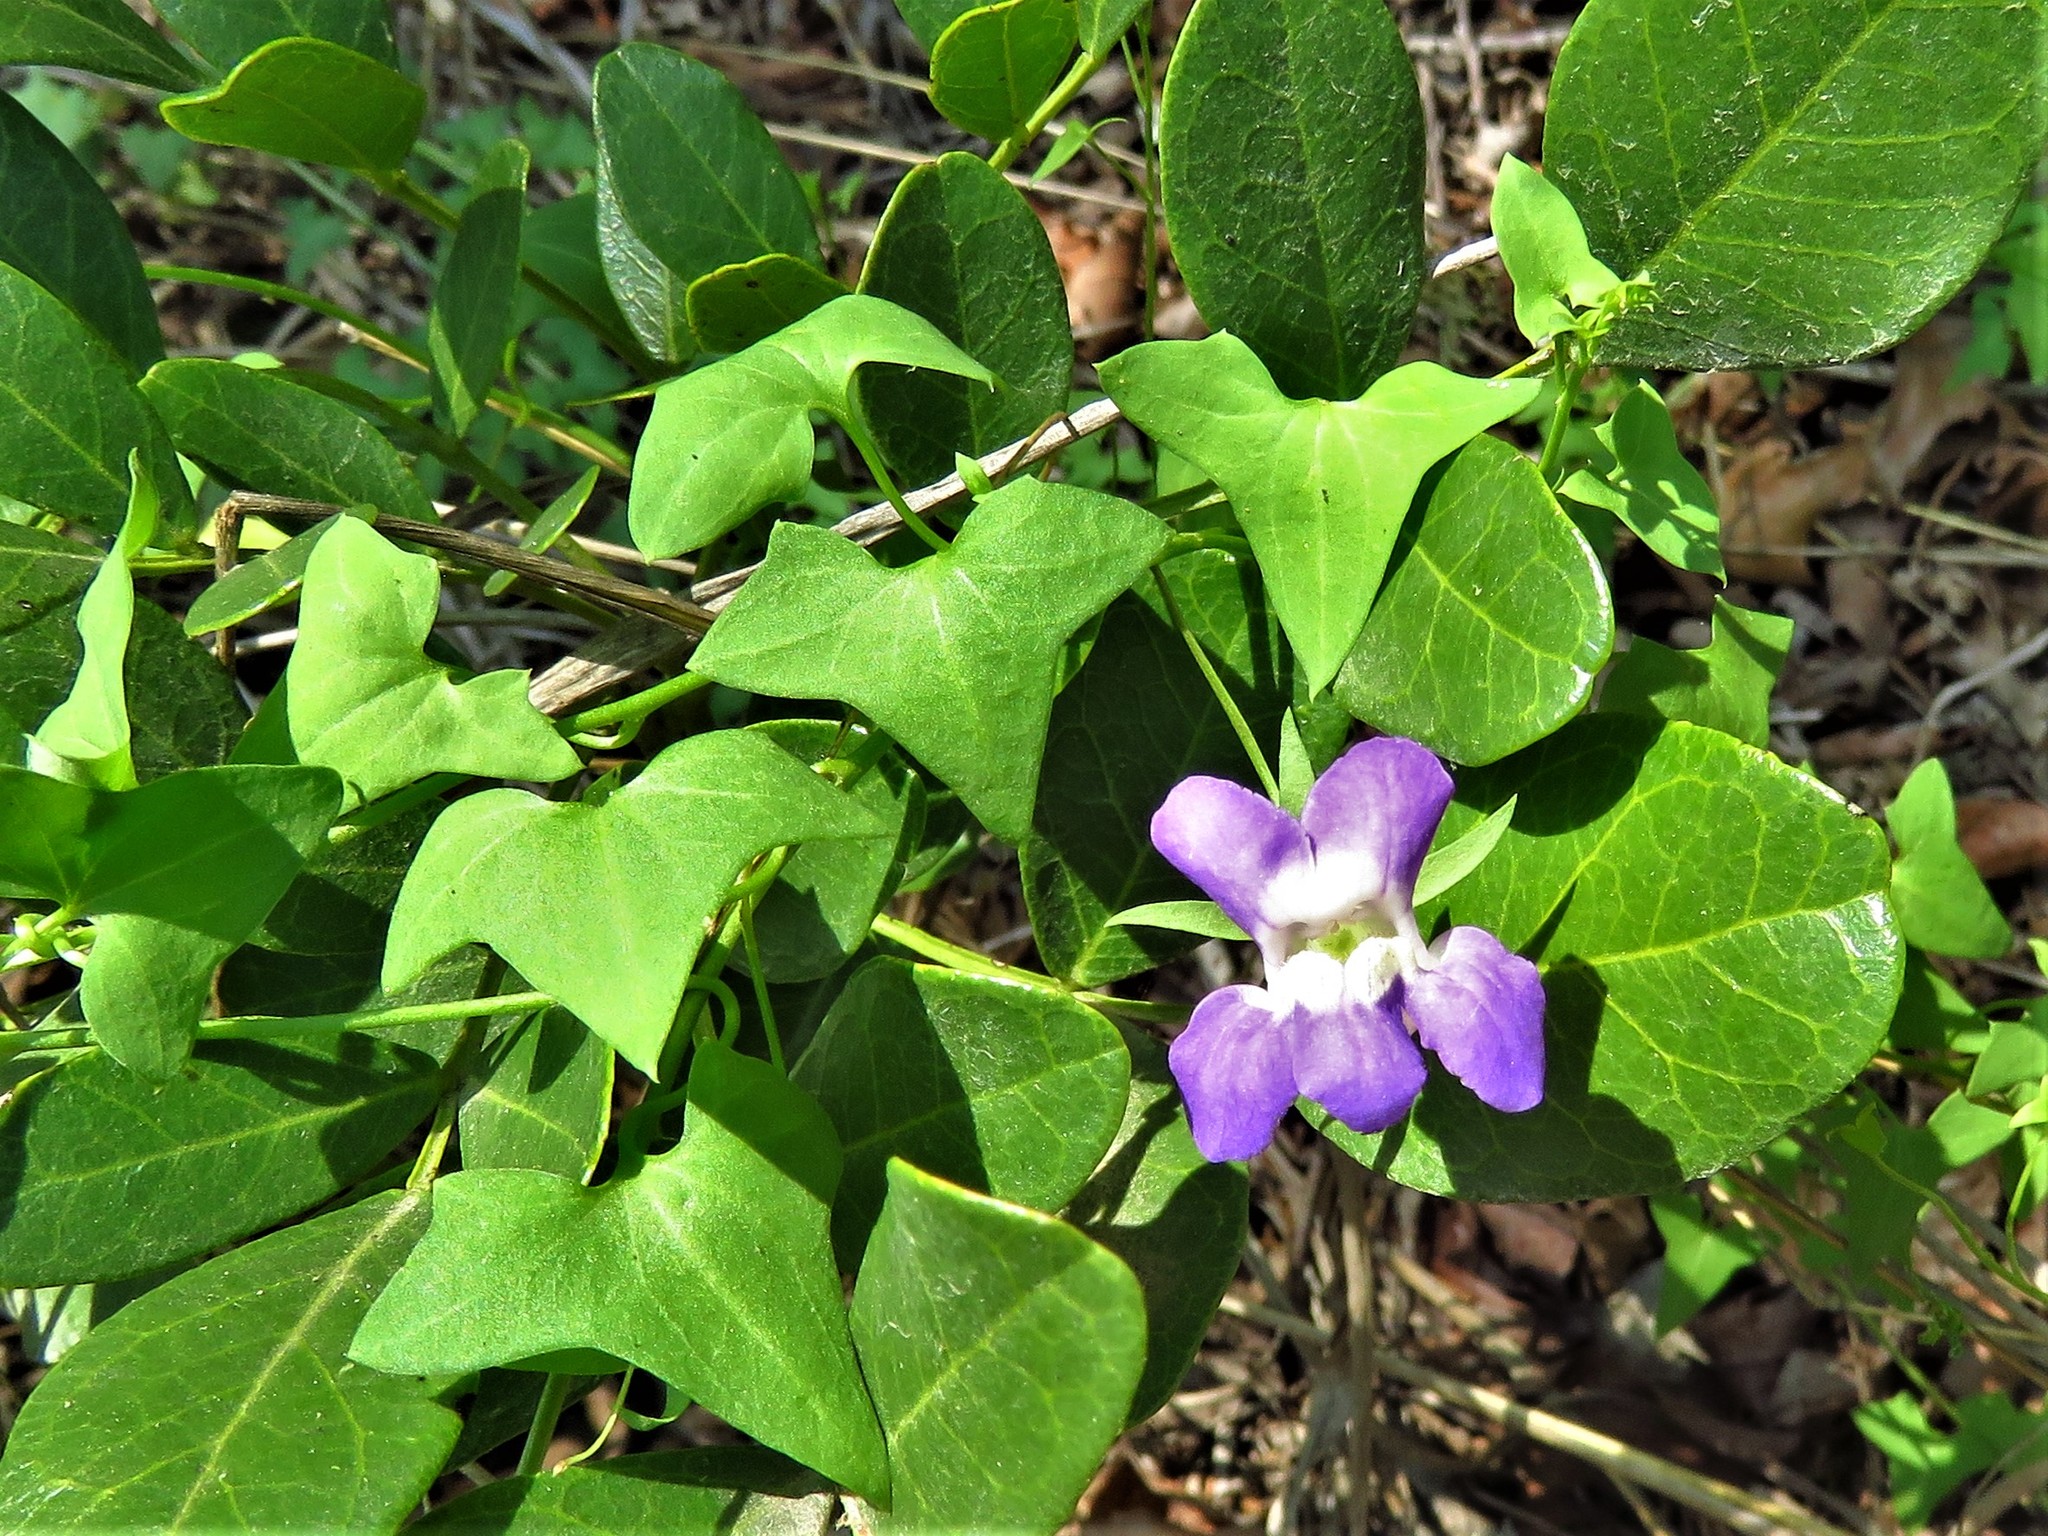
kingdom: Plantae
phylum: Tracheophyta
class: Magnoliopsida
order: Lamiales
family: Plantaginaceae
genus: Maurandella
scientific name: Maurandella antirrhiniflora
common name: Violet twining-snapdragon
